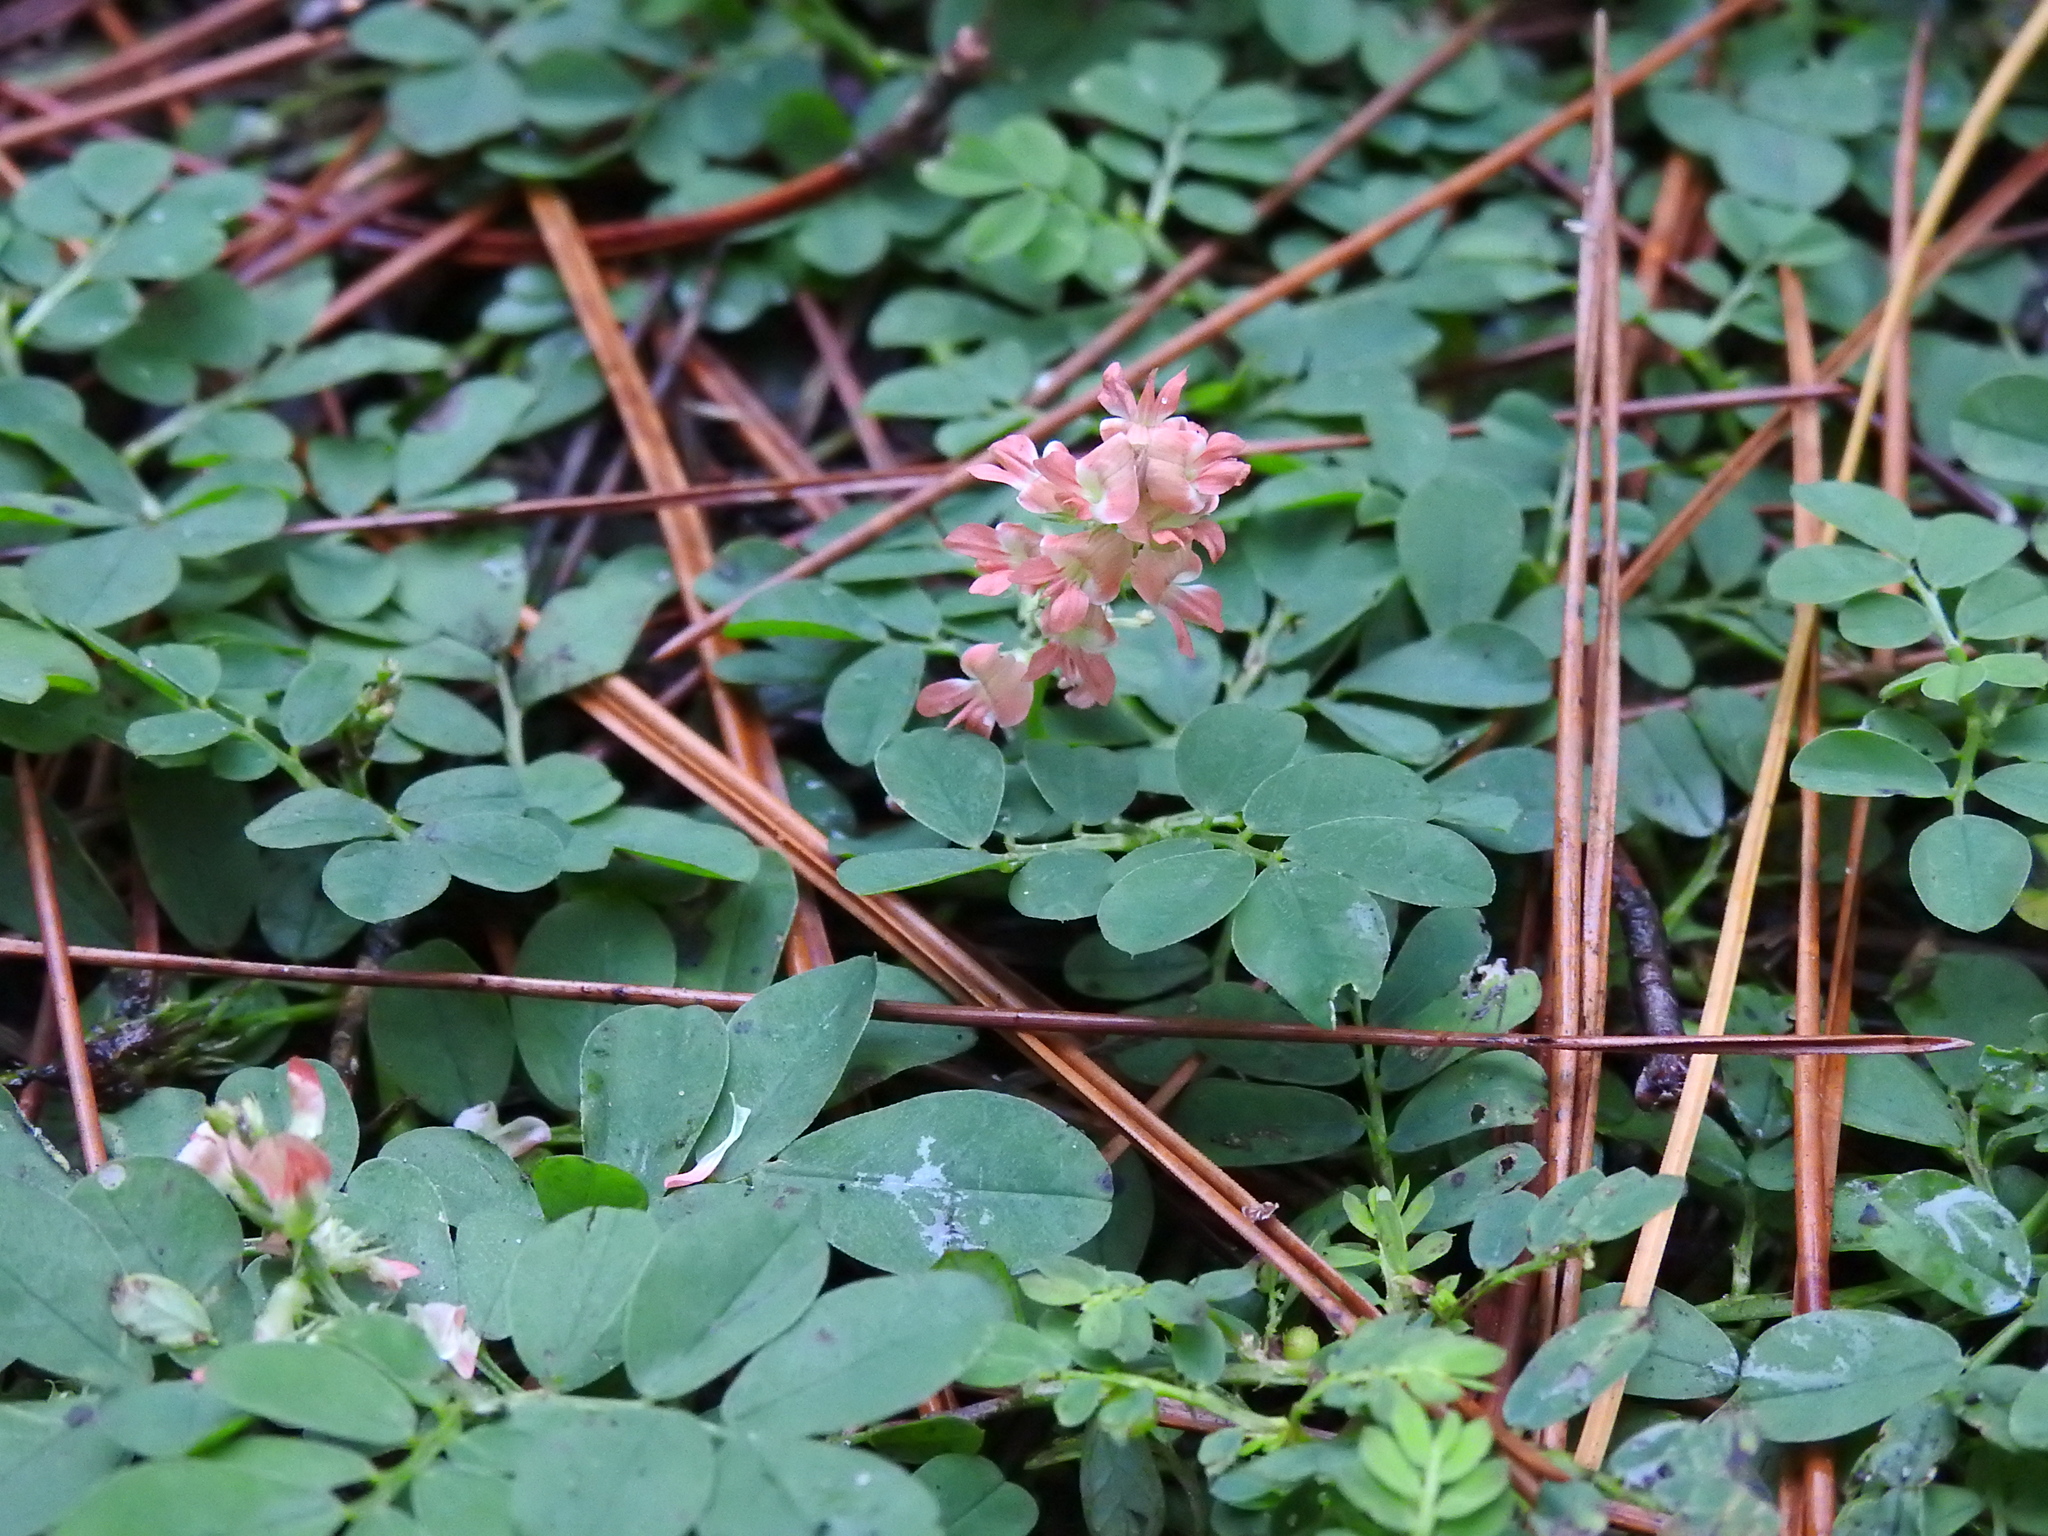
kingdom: Plantae
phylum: Tracheophyta
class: Magnoliopsida
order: Fabales
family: Fabaceae
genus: Indigofera
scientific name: Indigofera spicata
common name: Creeping indigo
